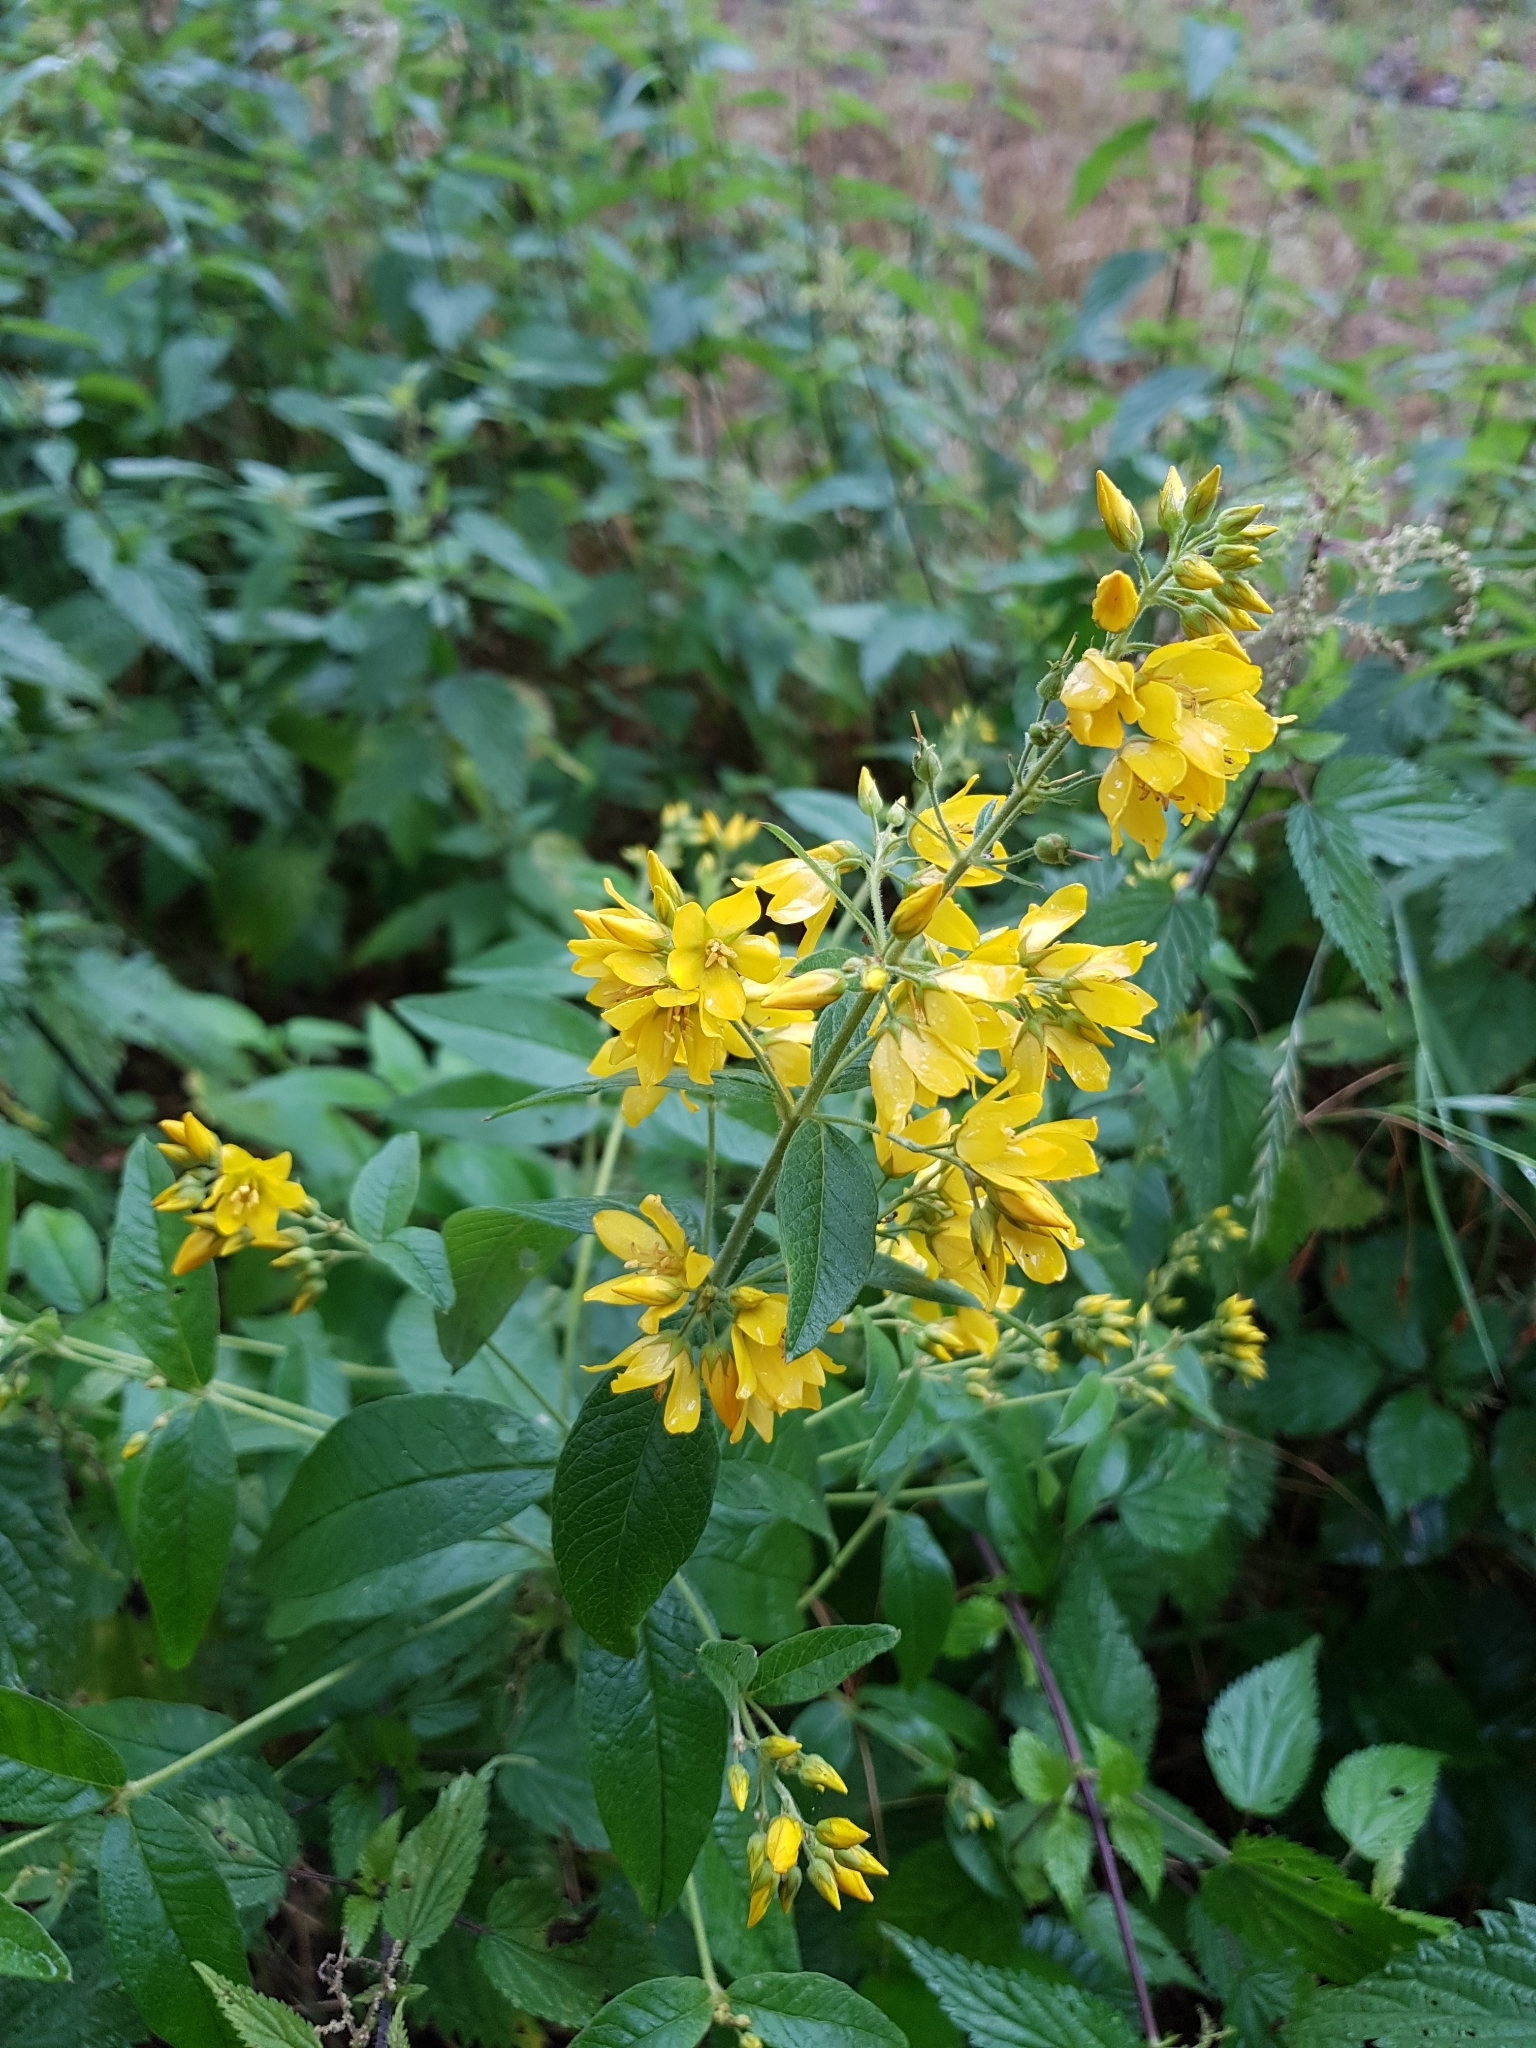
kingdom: Plantae
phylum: Tracheophyta
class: Magnoliopsida
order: Ericales
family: Primulaceae
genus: Lysimachia
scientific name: Lysimachia vulgaris
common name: Yellow loosestrife
